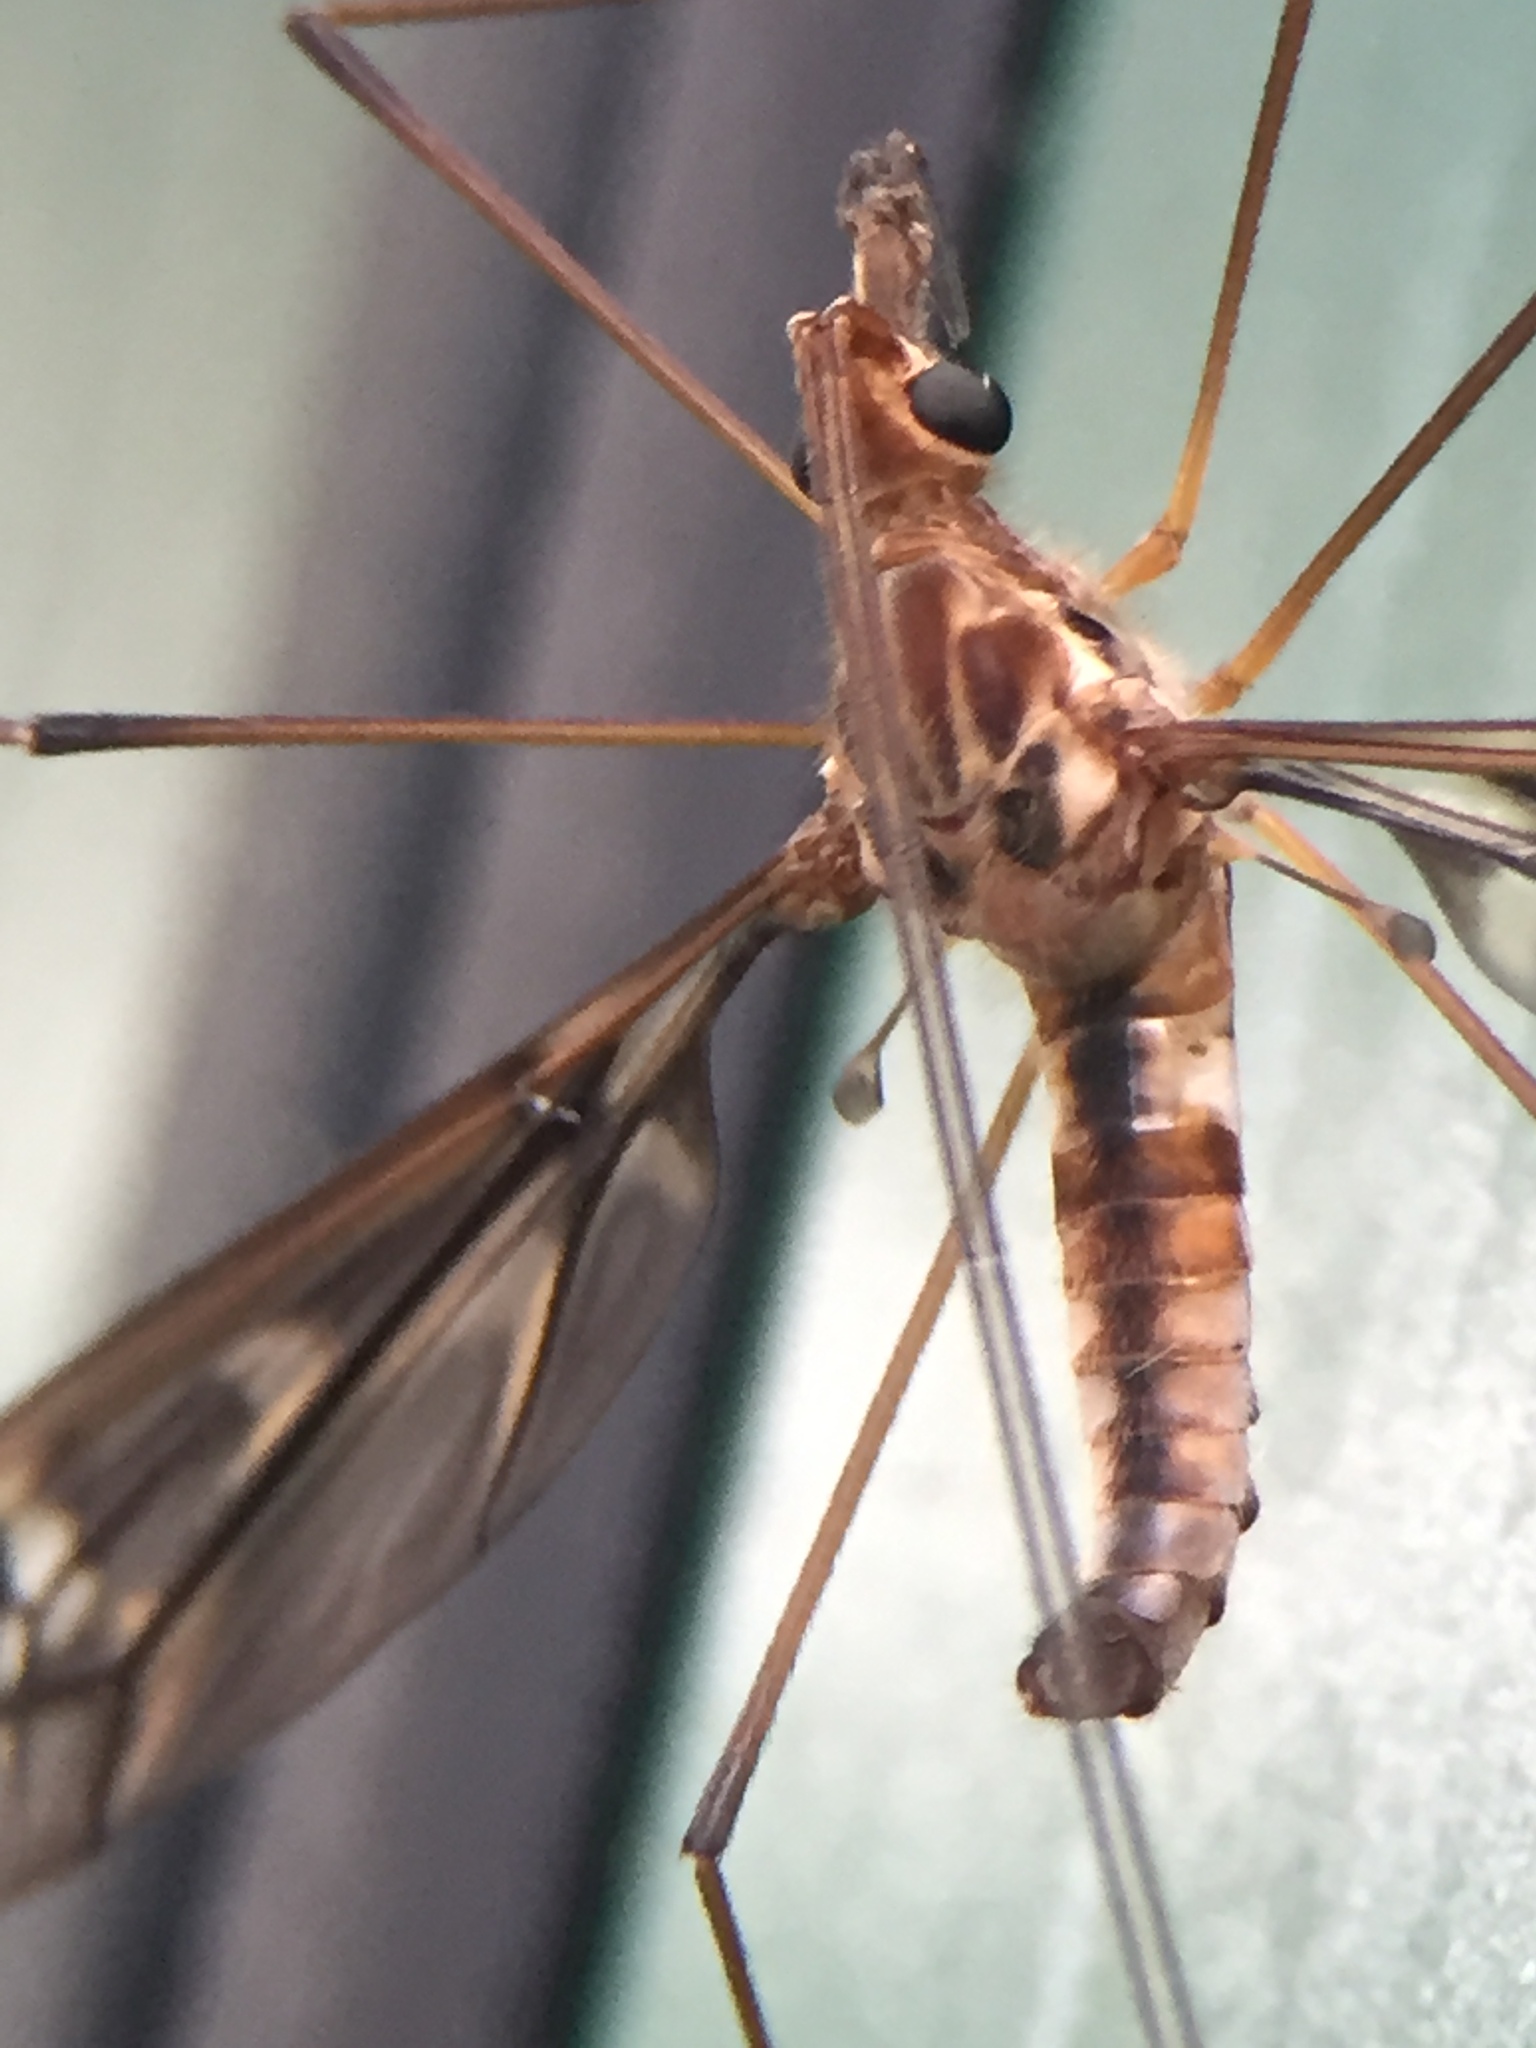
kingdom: Animalia
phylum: Arthropoda
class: Insecta
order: Diptera
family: Tipulidae
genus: Leptotarsus
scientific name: Leptotarsus variegatus
